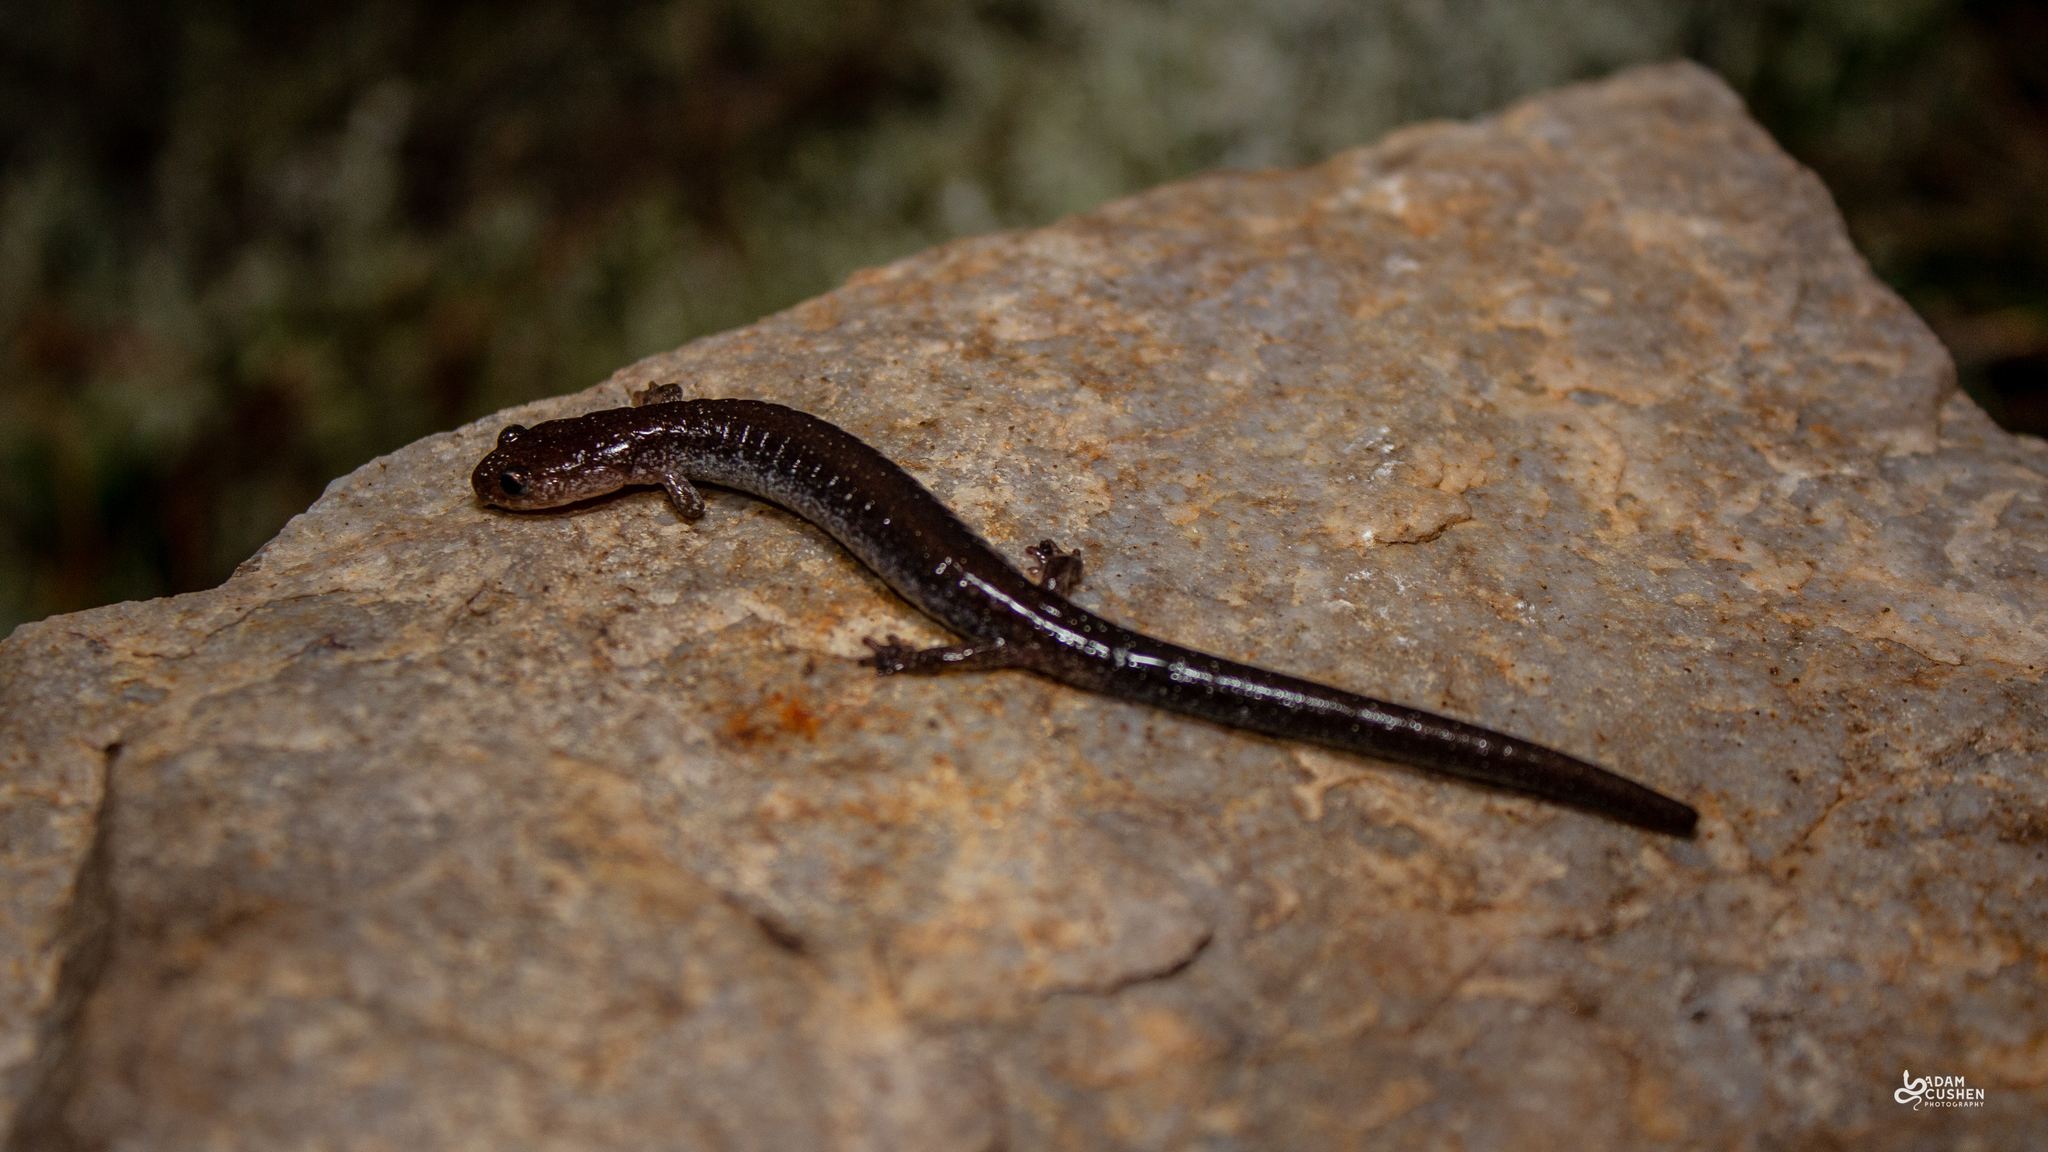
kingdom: Animalia
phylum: Chordata
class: Amphibia
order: Caudata
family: Plethodontidae
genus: Plethodon
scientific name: Plethodon cinereus
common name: Redback salamander
